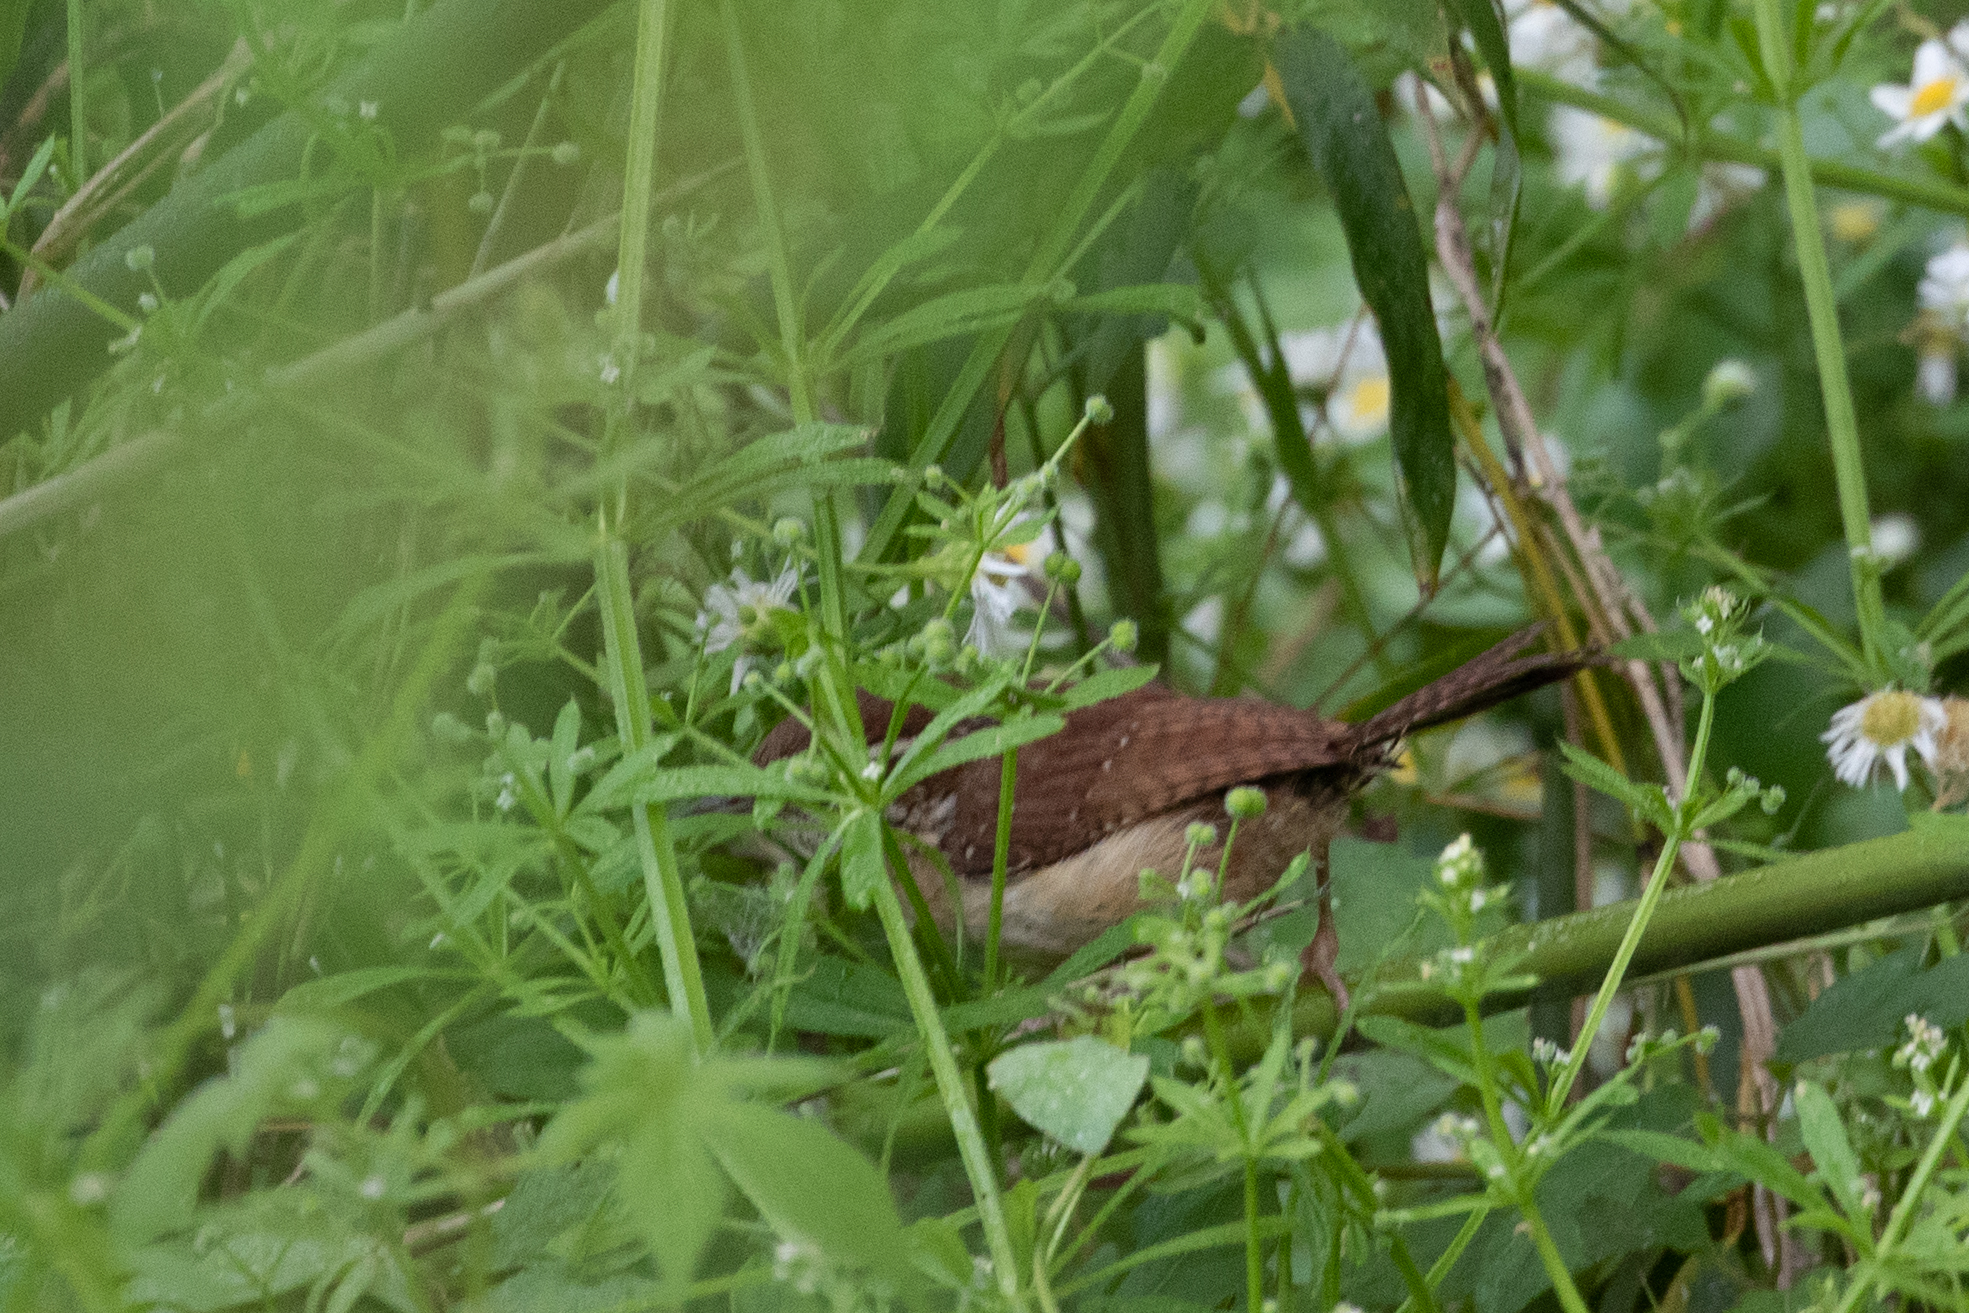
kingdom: Animalia
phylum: Chordata
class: Aves
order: Passeriformes
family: Troglodytidae
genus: Thryothorus
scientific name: Thryothorus ludovicianus
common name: Carolina wren
